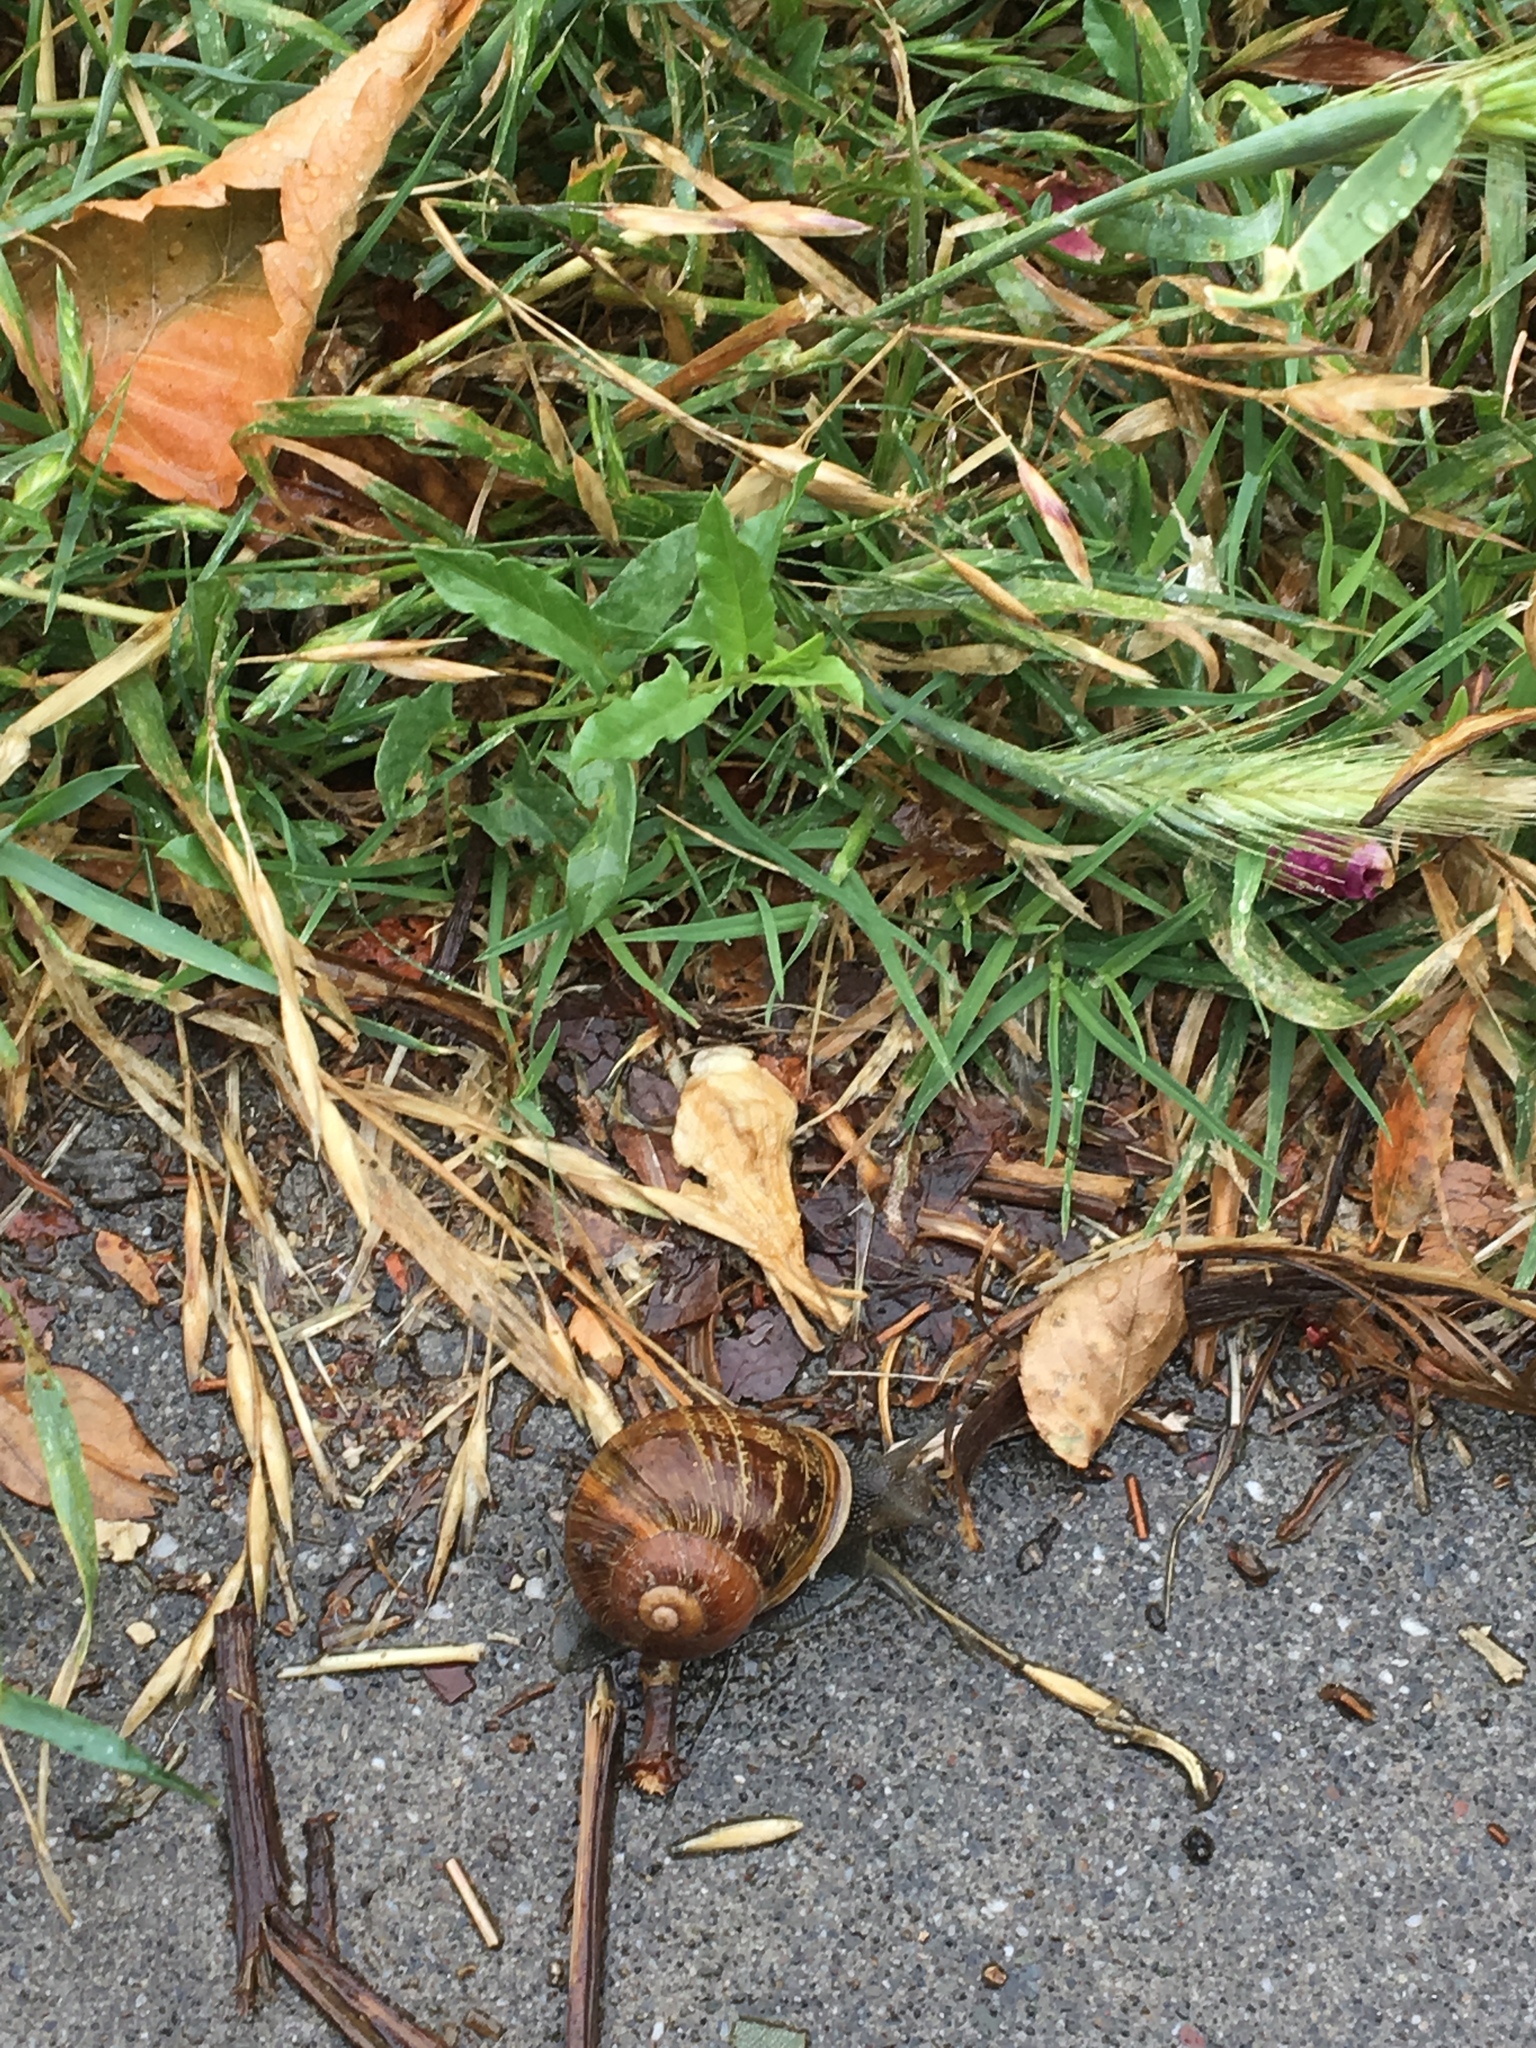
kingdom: Animalia
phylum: Mollusca
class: Gastropoda
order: Stylommatophora
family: Helicidae
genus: Cornu
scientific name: Cornu aspersum
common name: Brown garden snail
